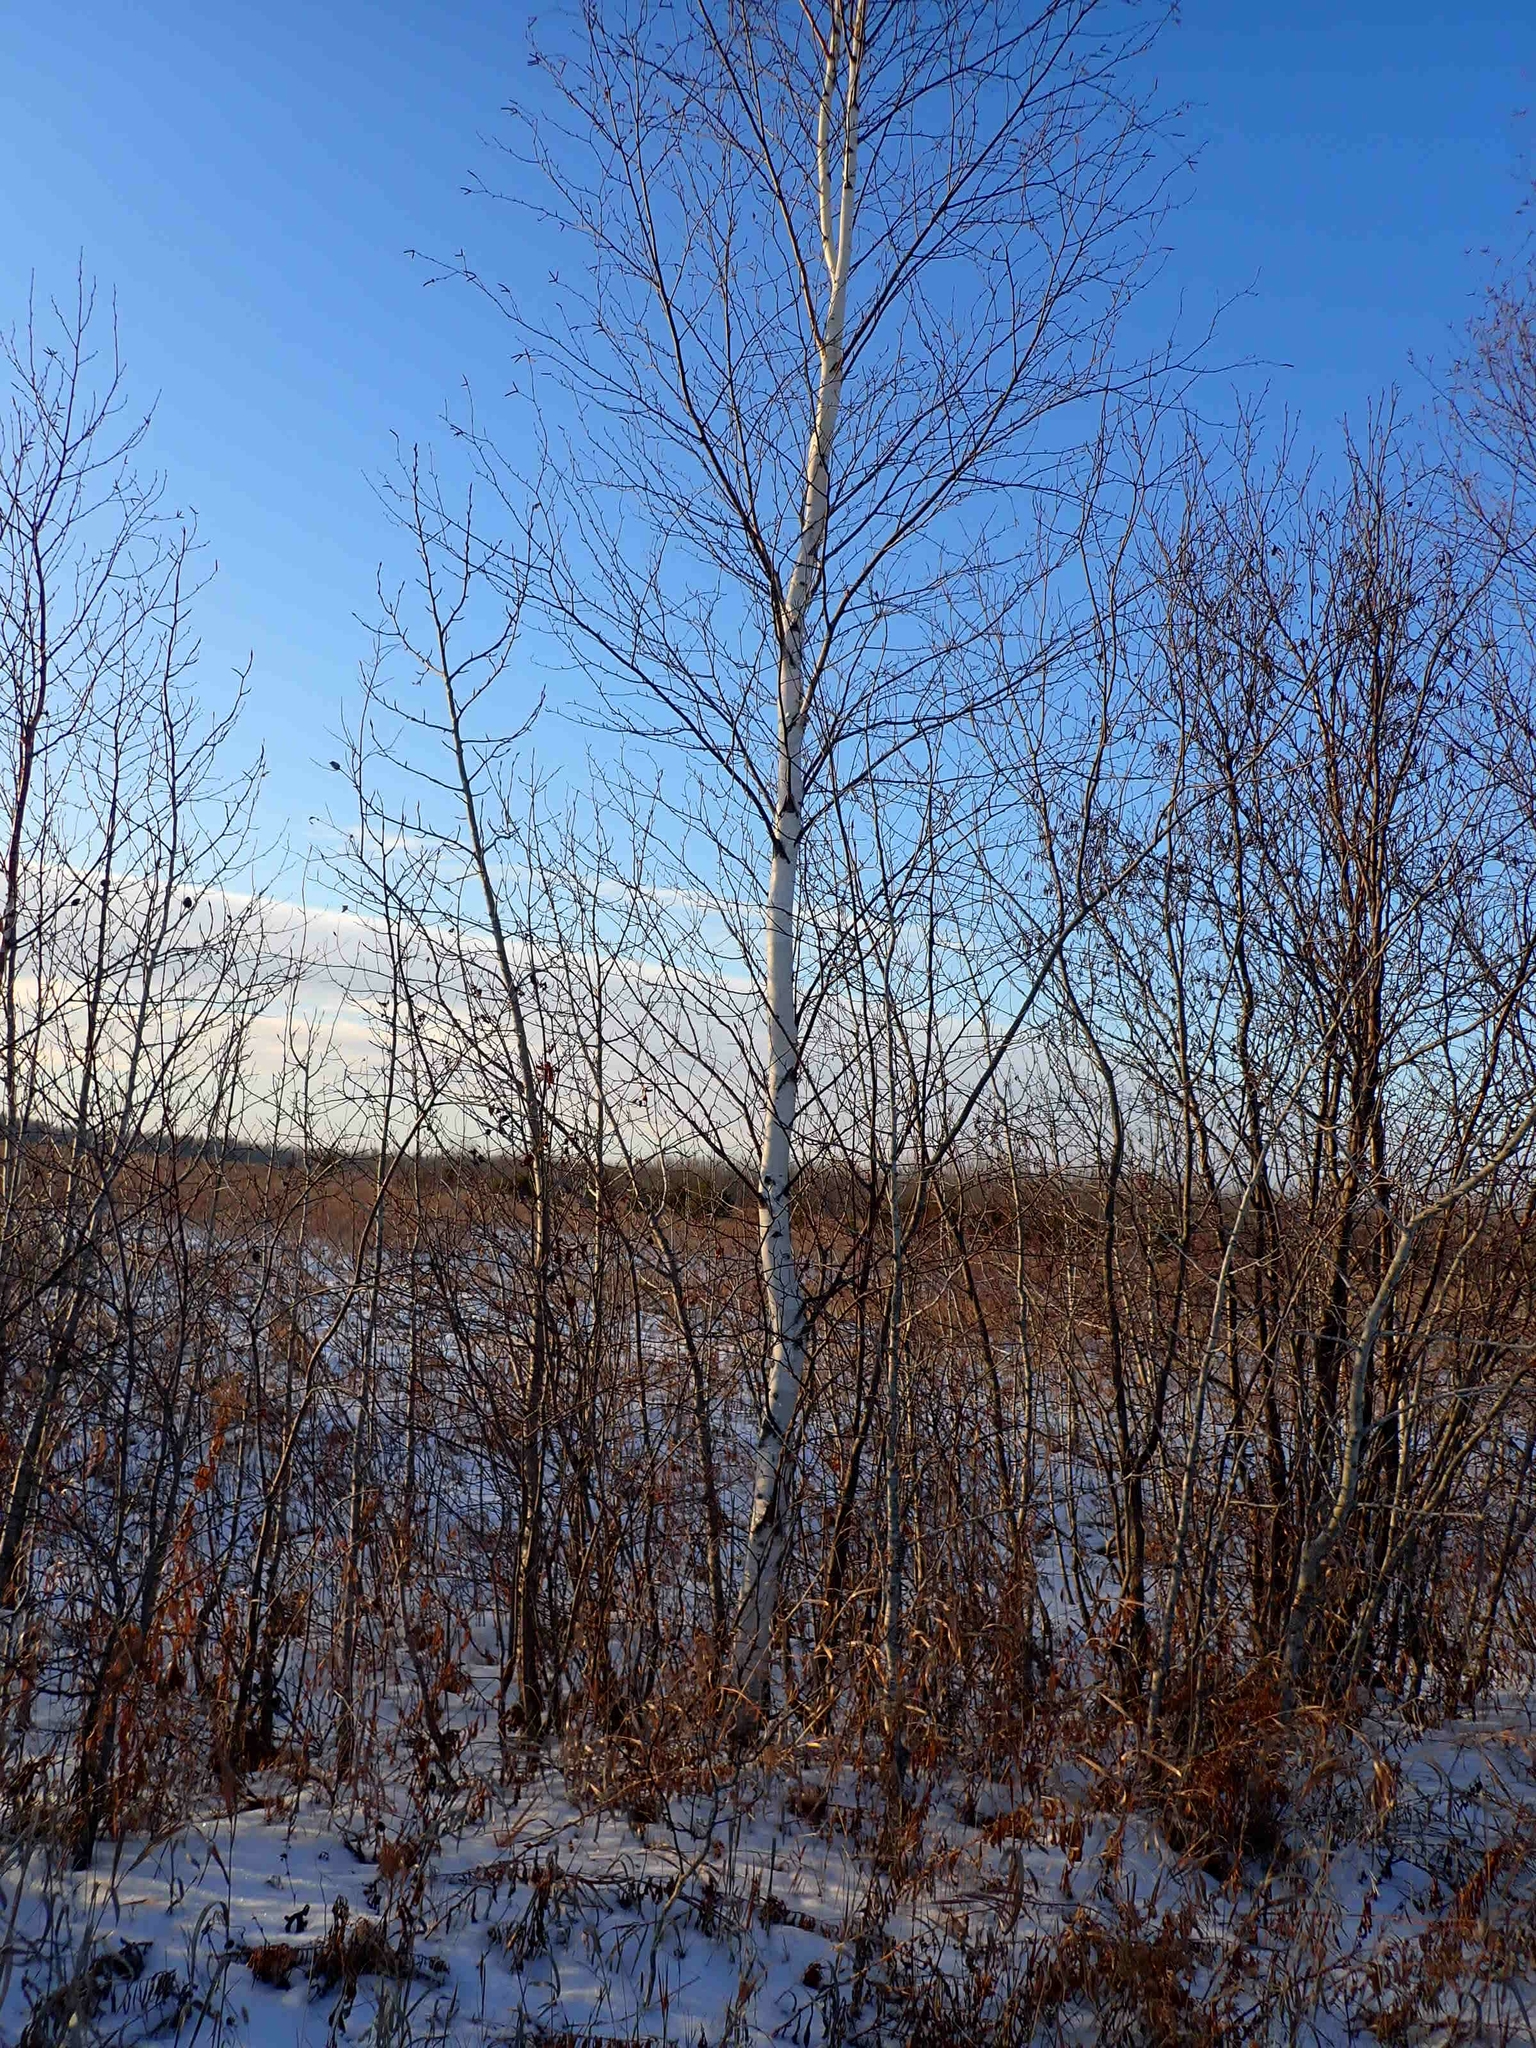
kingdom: Plantae
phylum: Tracheophyta
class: Magnoliopsida
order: Fagales
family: Betulaceae
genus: Betula
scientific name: Betula papyrifera
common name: Paper birch
